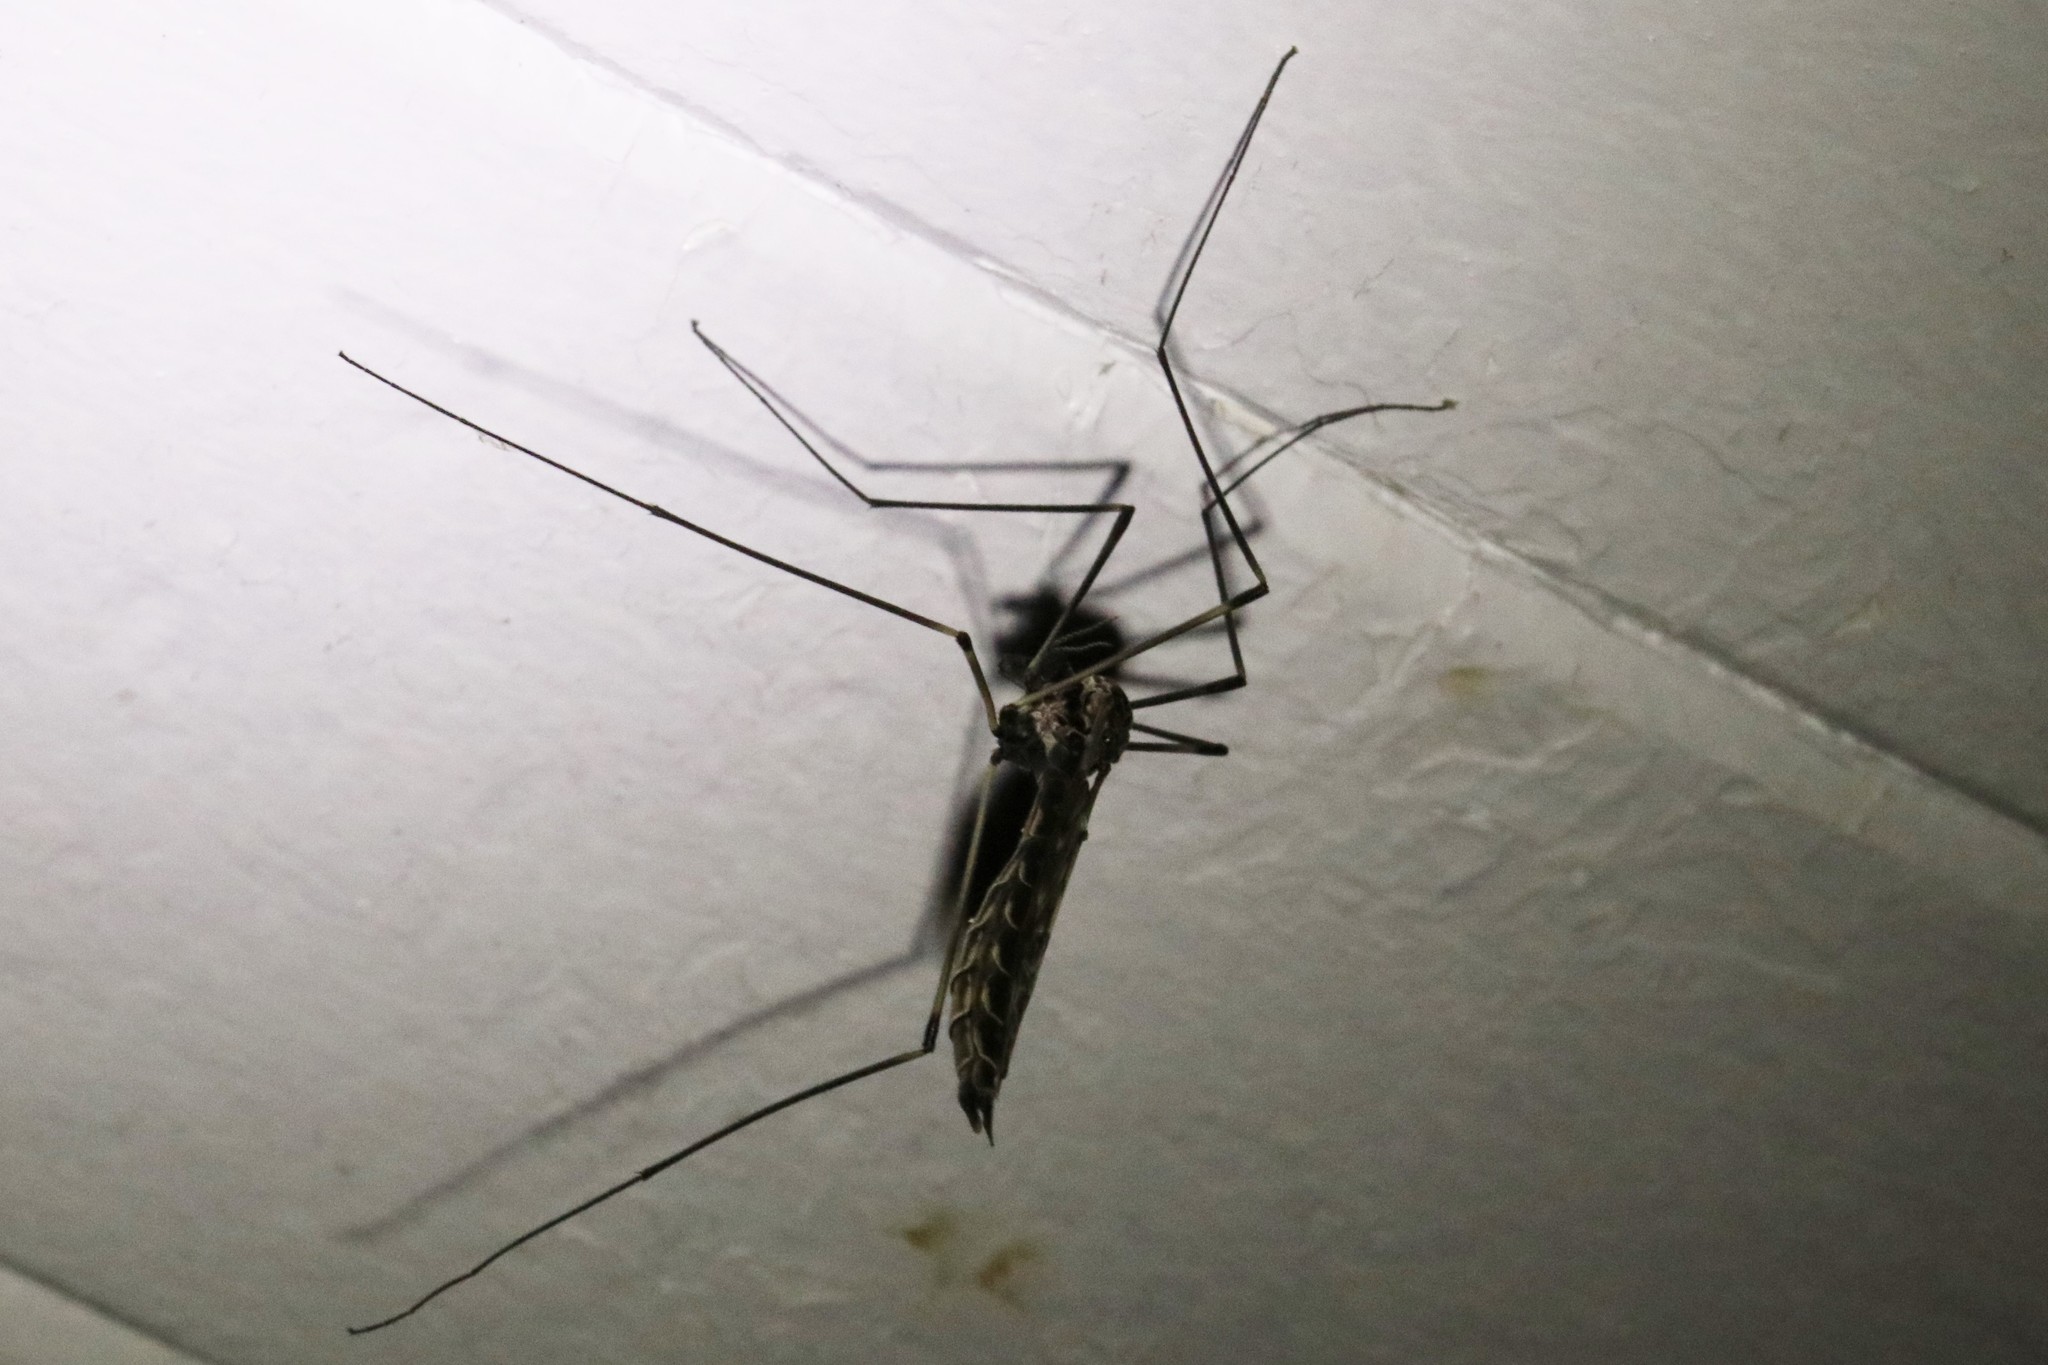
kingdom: Animalia
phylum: Arthropoda
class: Insecta
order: Diptera
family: Tipulidae
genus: Tipula
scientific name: Tipula abdominalis
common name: Giant crane fly
